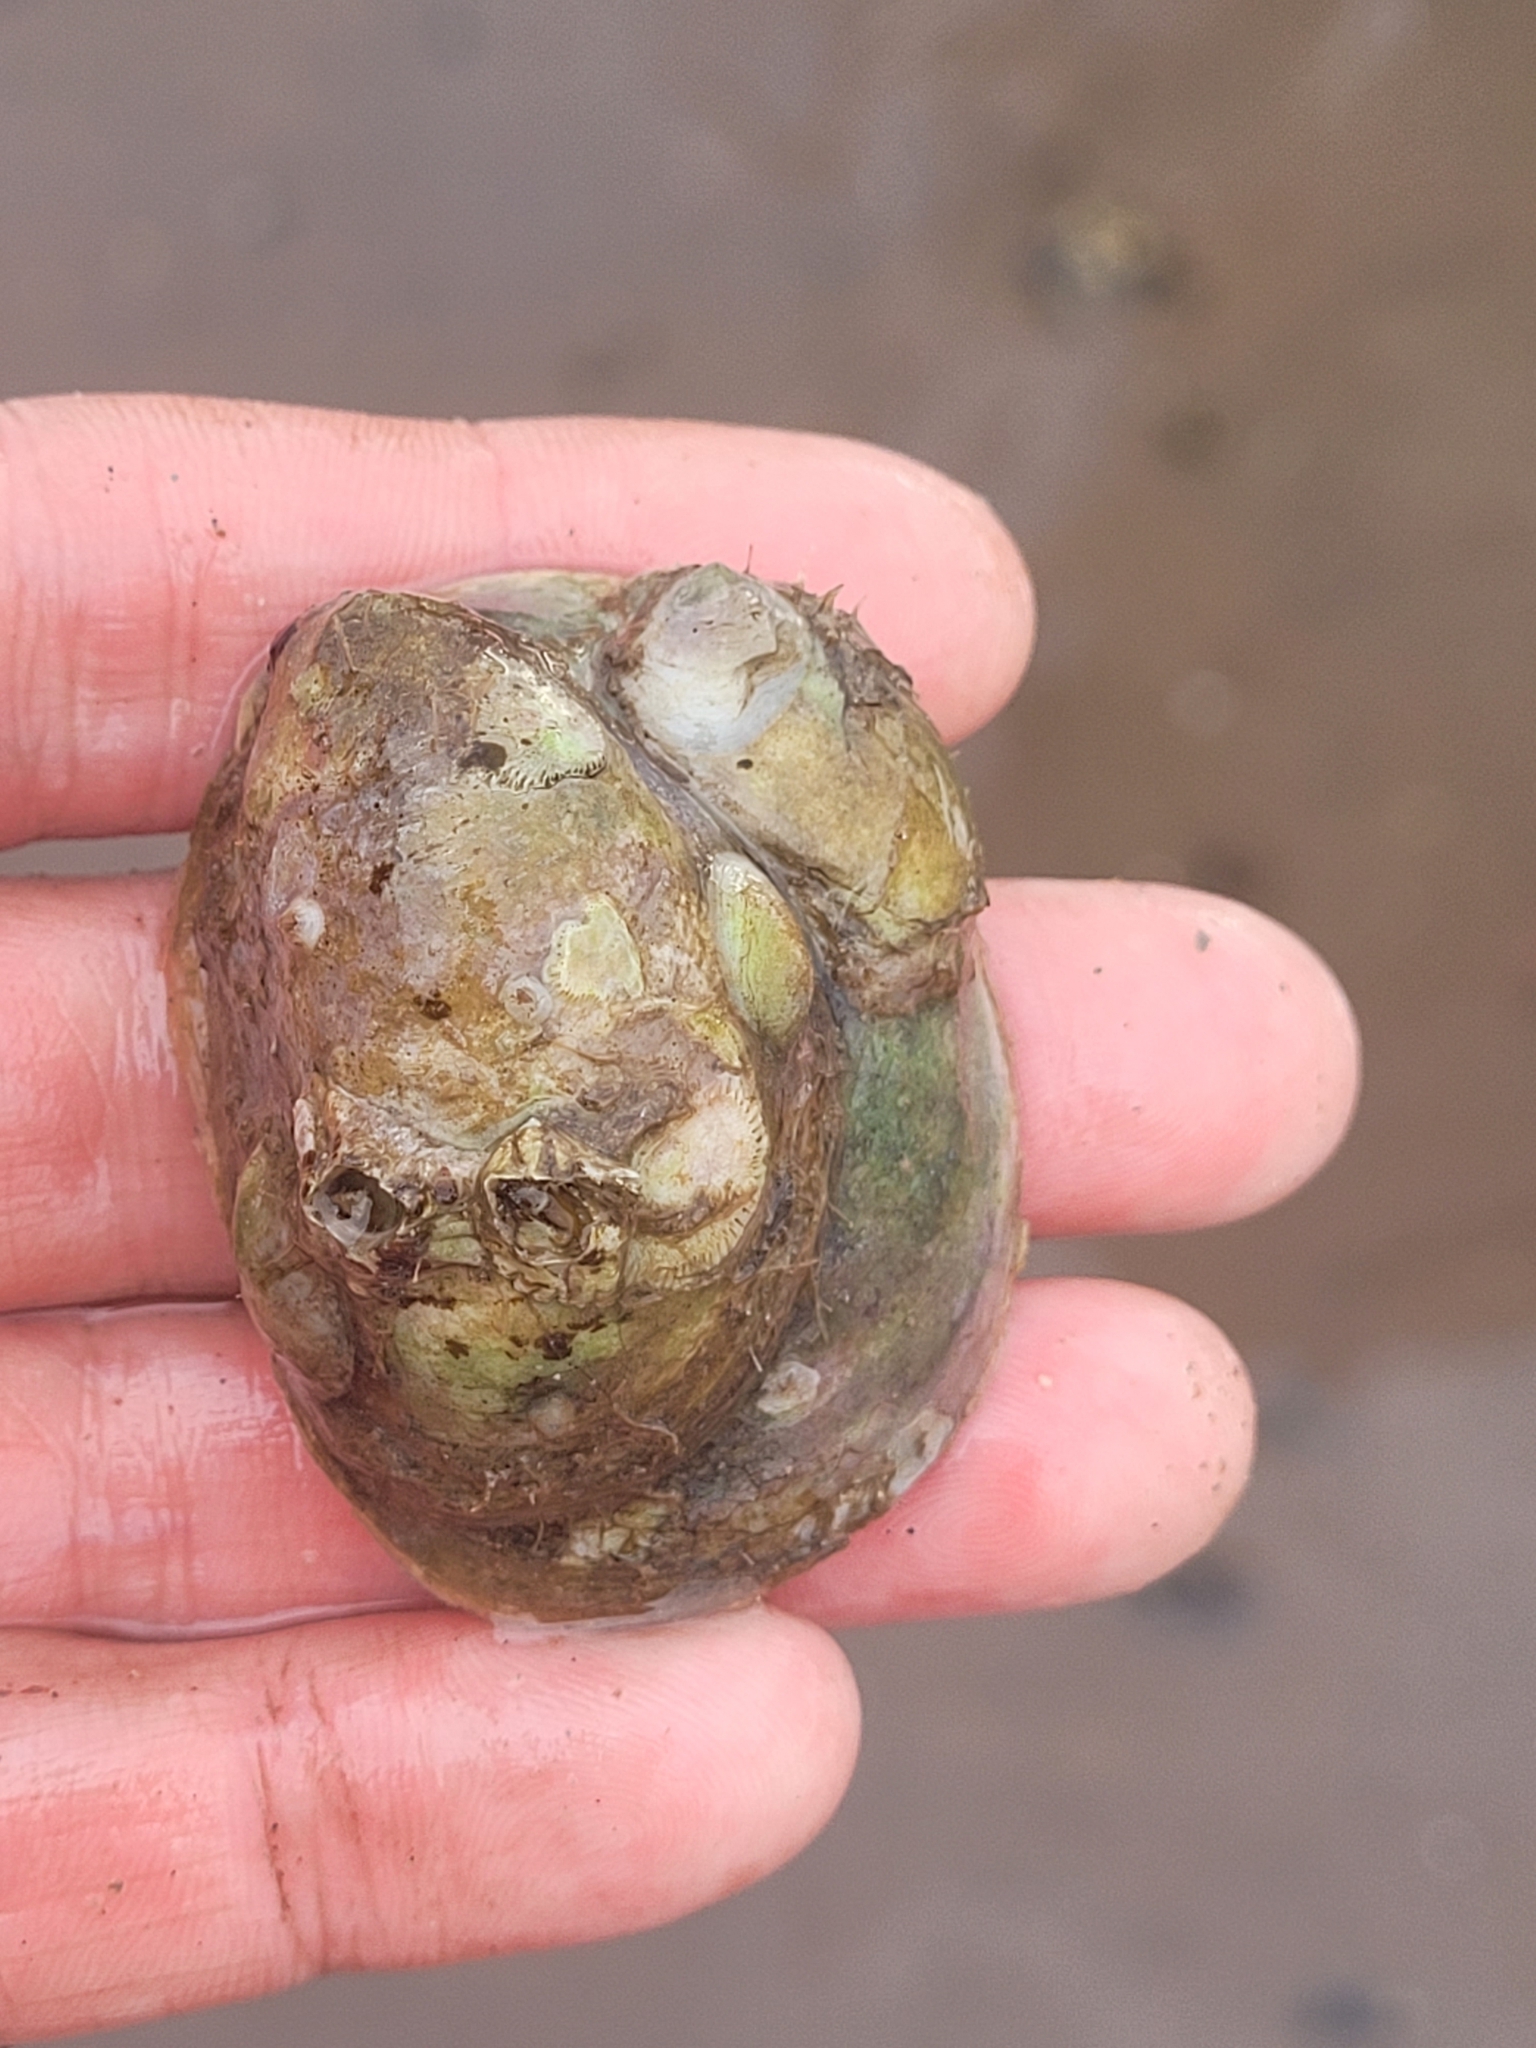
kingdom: Animalia
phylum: Mollusca
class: Gastropoda
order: Littorinimorpha
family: Calyptraeidae
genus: Crepidula
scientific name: Crepidula fornicata
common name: Slipper limpet
